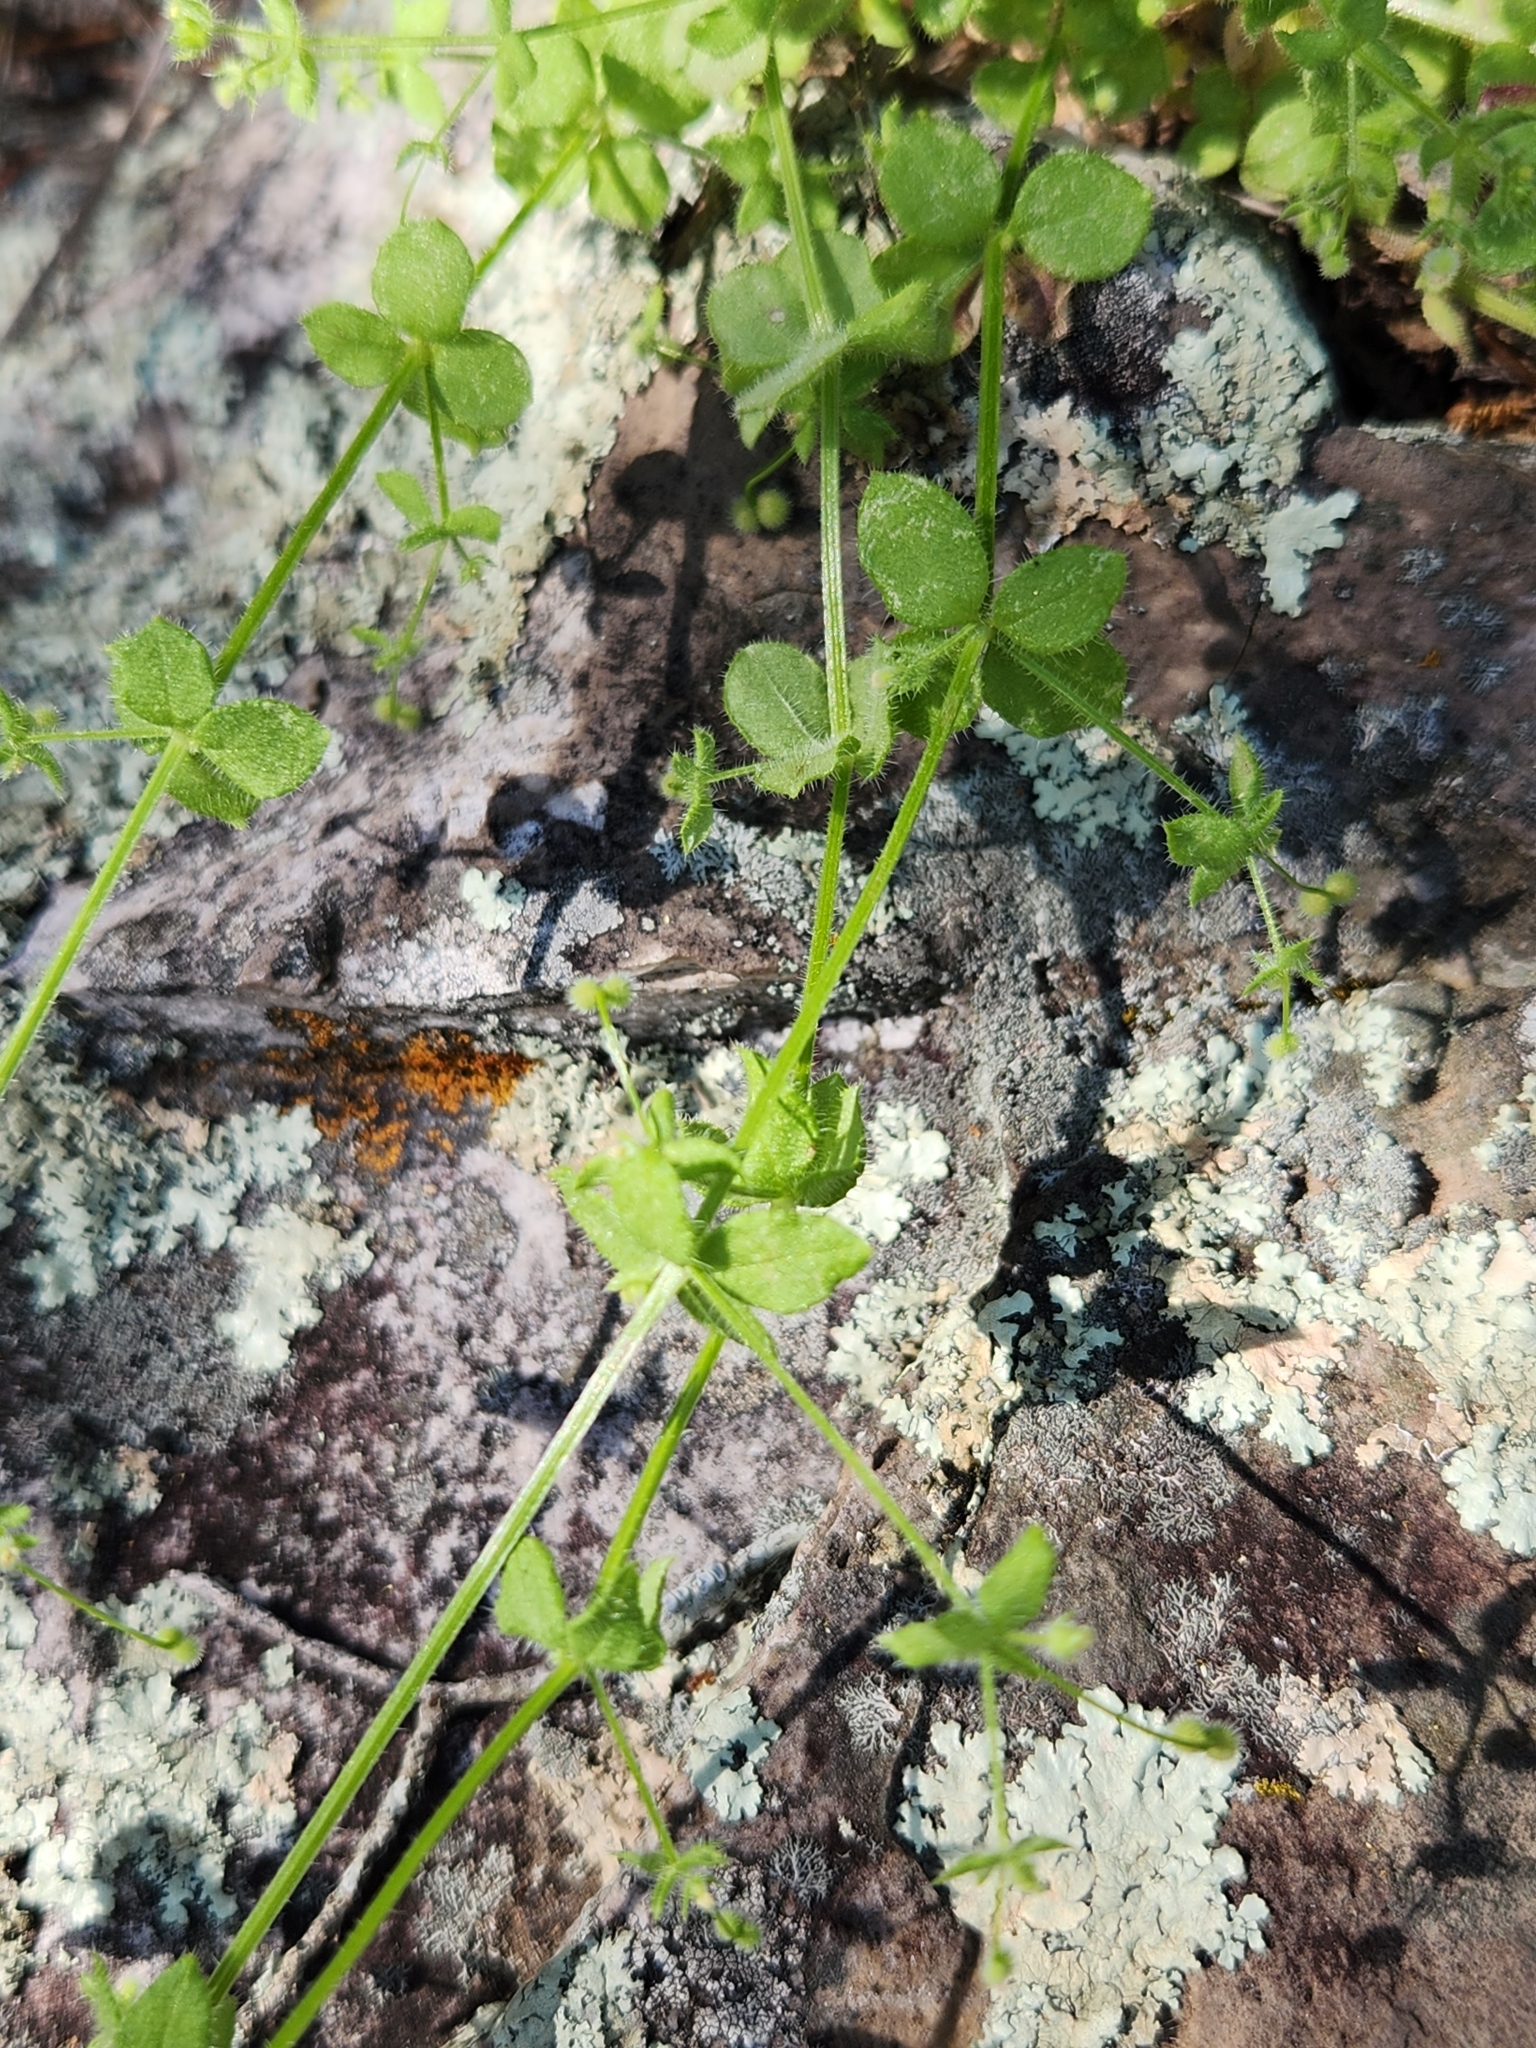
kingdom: Plantae
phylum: Tracheophyta
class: Magnoliopsida
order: Gentianales
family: Rubiaceae
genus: Galium
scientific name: Galium virgatum
